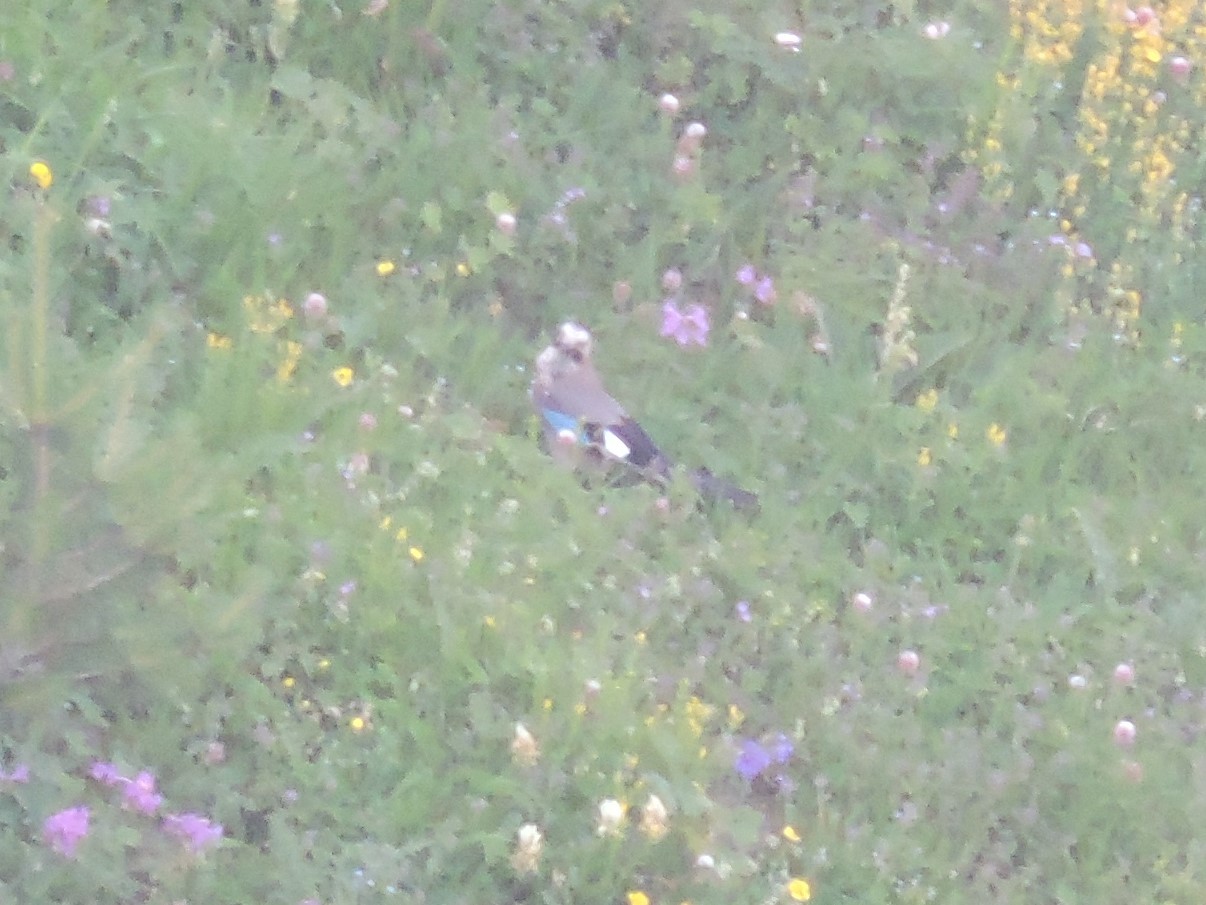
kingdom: Animalia
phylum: Chordata
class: Aves
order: Passeriformes
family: Corvidae
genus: Garrulus
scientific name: Garrulus glandarius
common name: Eurasian jay
